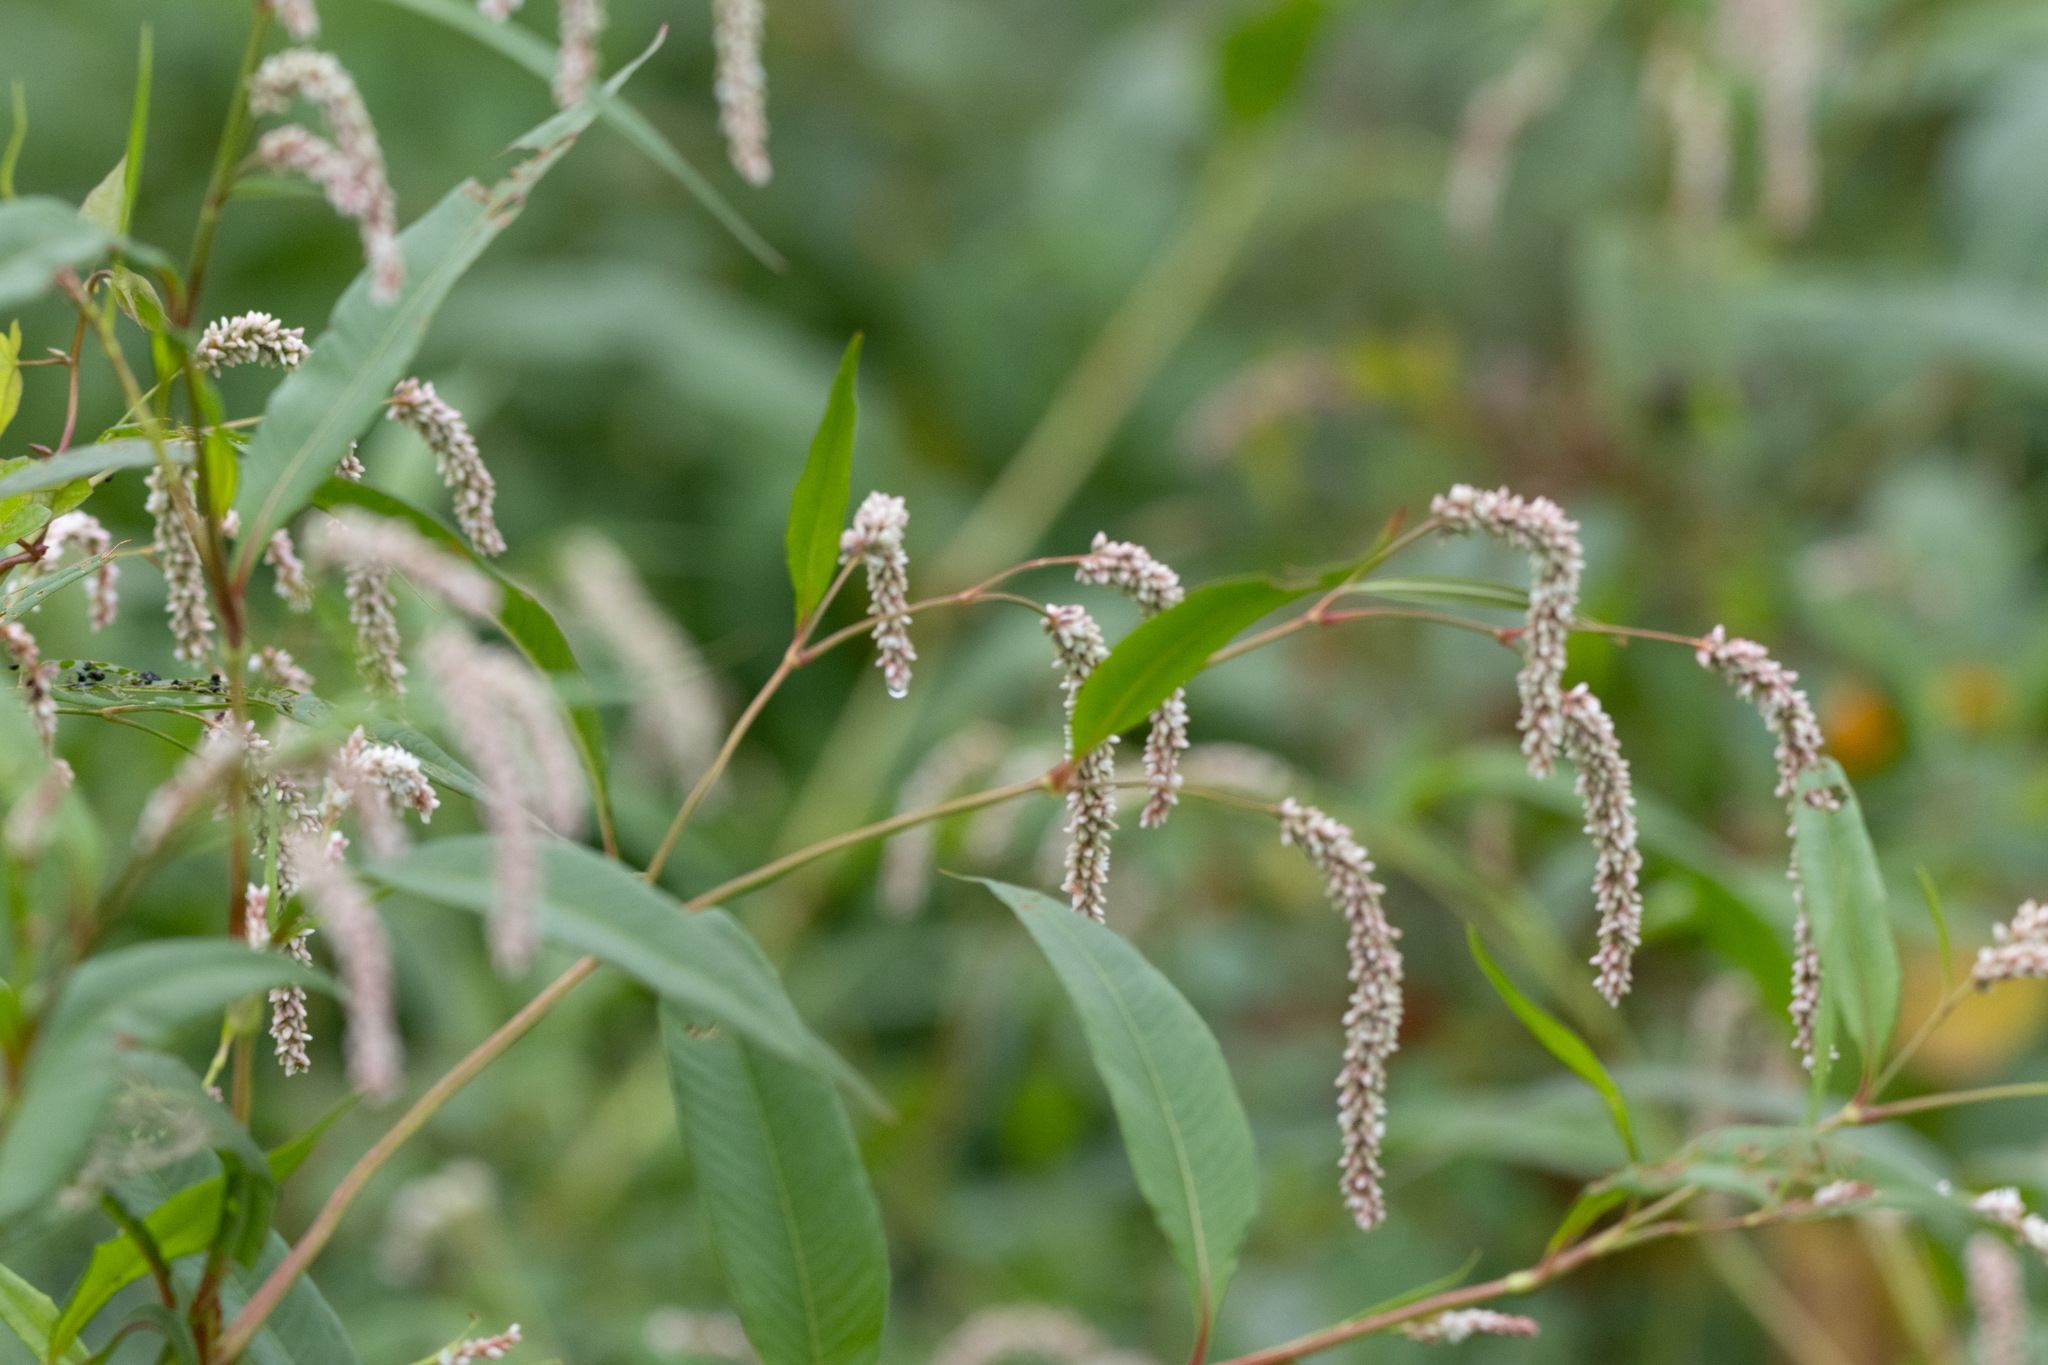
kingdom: Plantae
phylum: Tracheophyta
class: Magnoliopsida
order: Caryophyllales
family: Polygonaceae
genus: Persicaria
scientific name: Persicaria lapathifolia
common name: Curlytop knotweed
